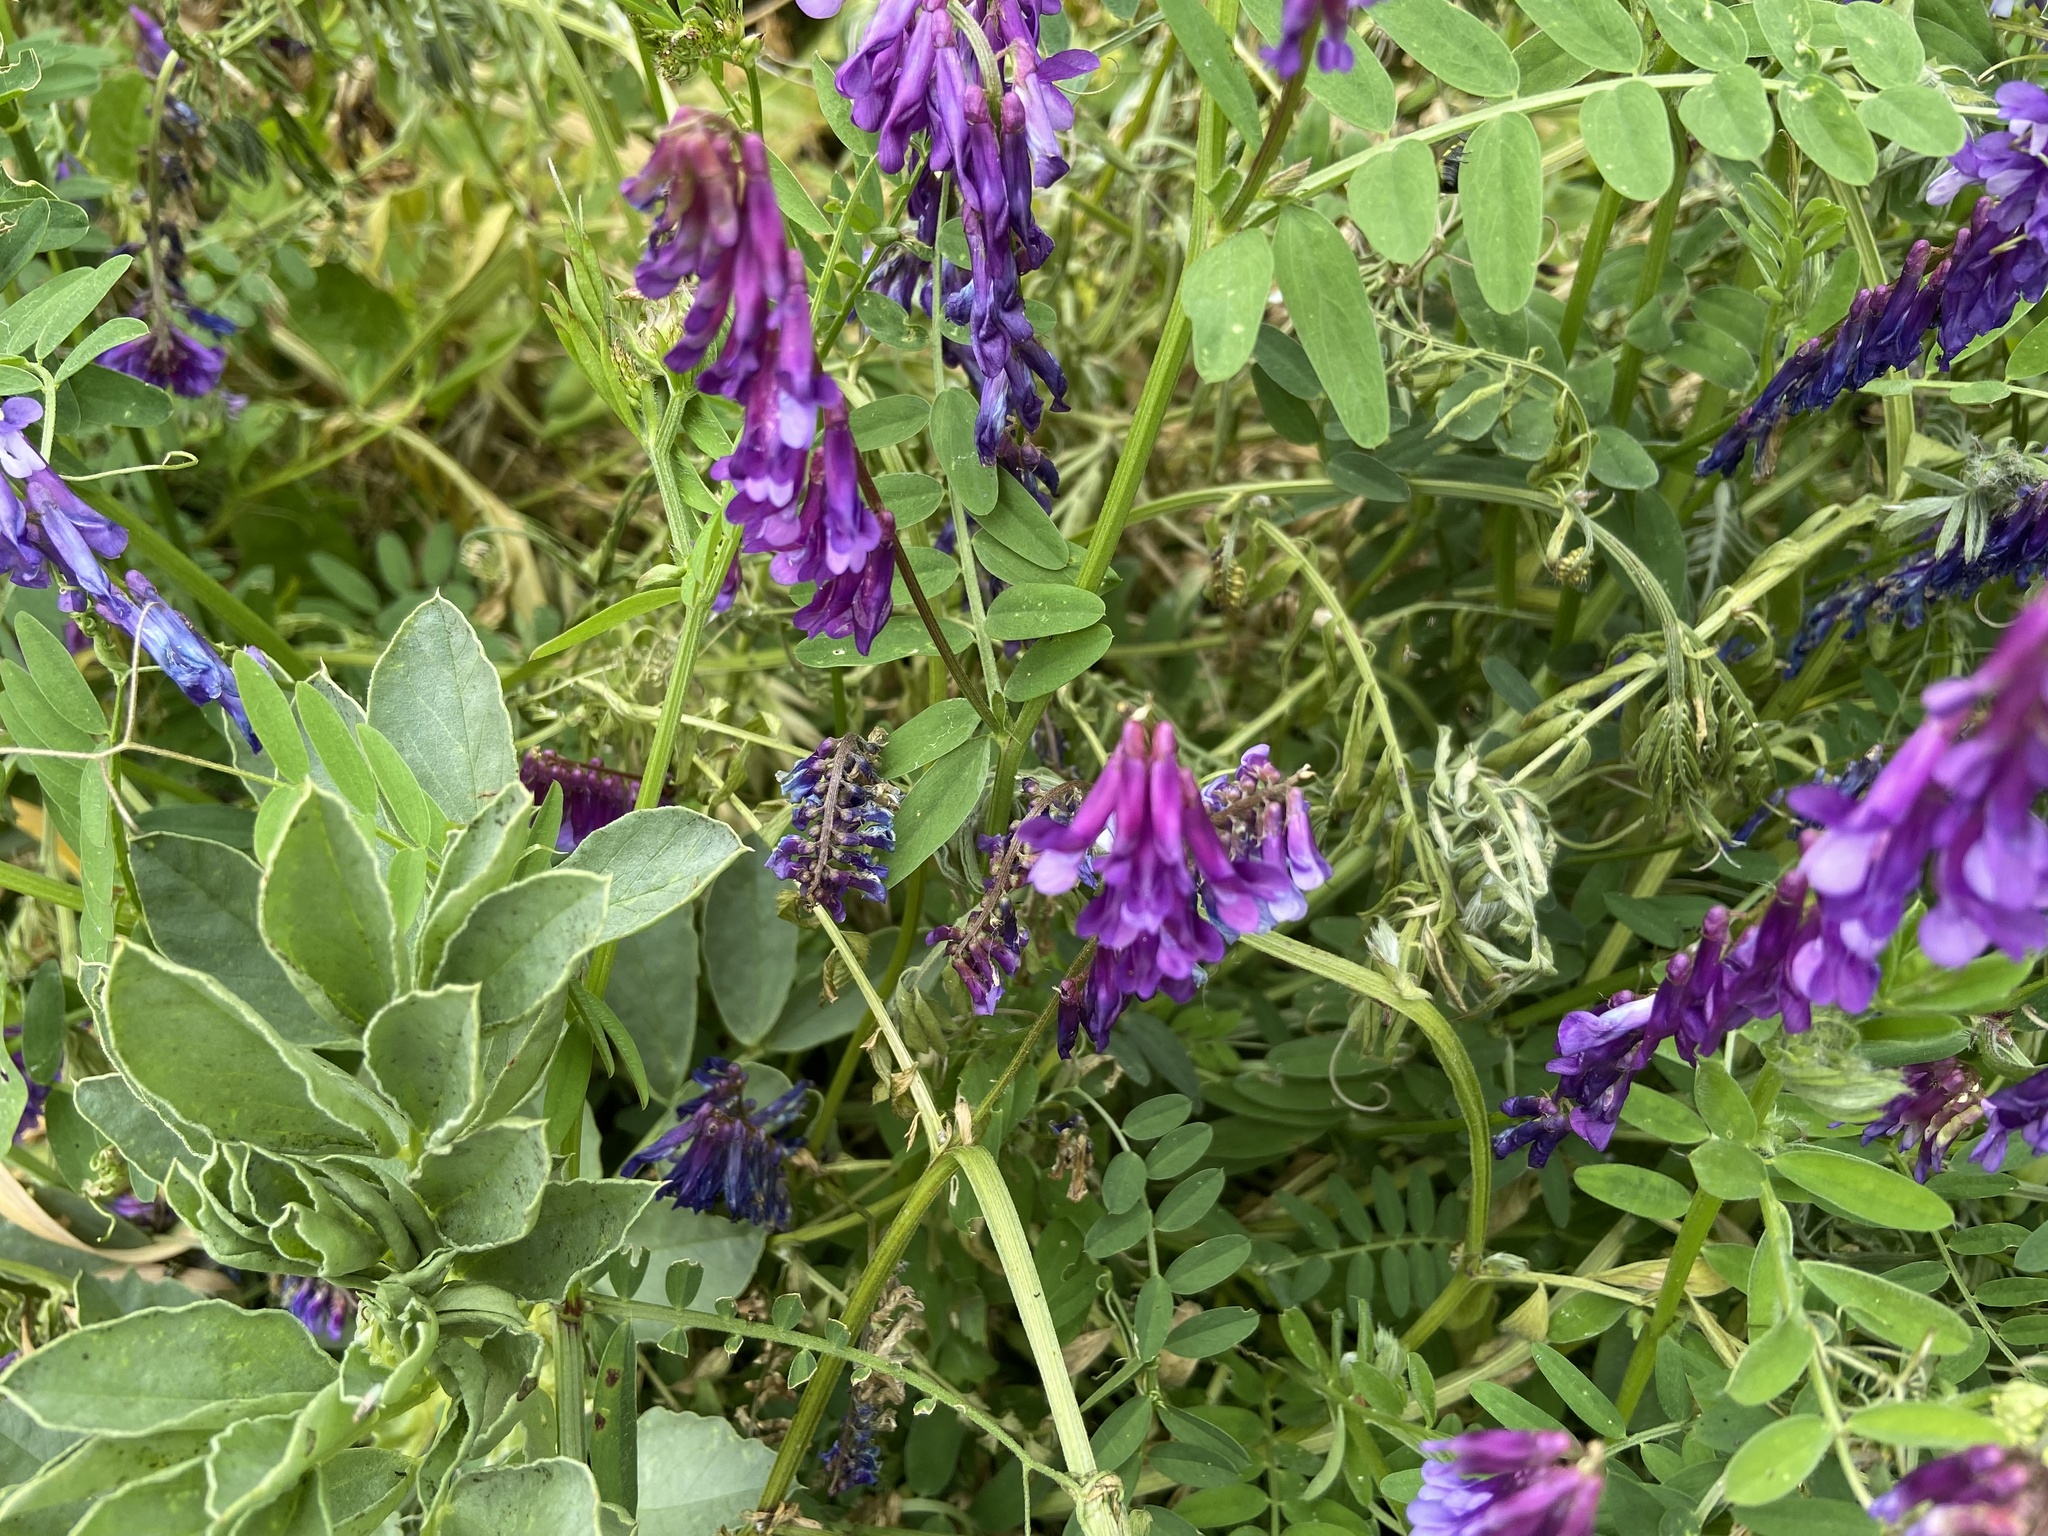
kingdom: Plantae
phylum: Tracheophyta
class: Magnoliopsida
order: Fabales
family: Fabaceae
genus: Vicia
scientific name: Vicia villosa
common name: Fodder vetch
